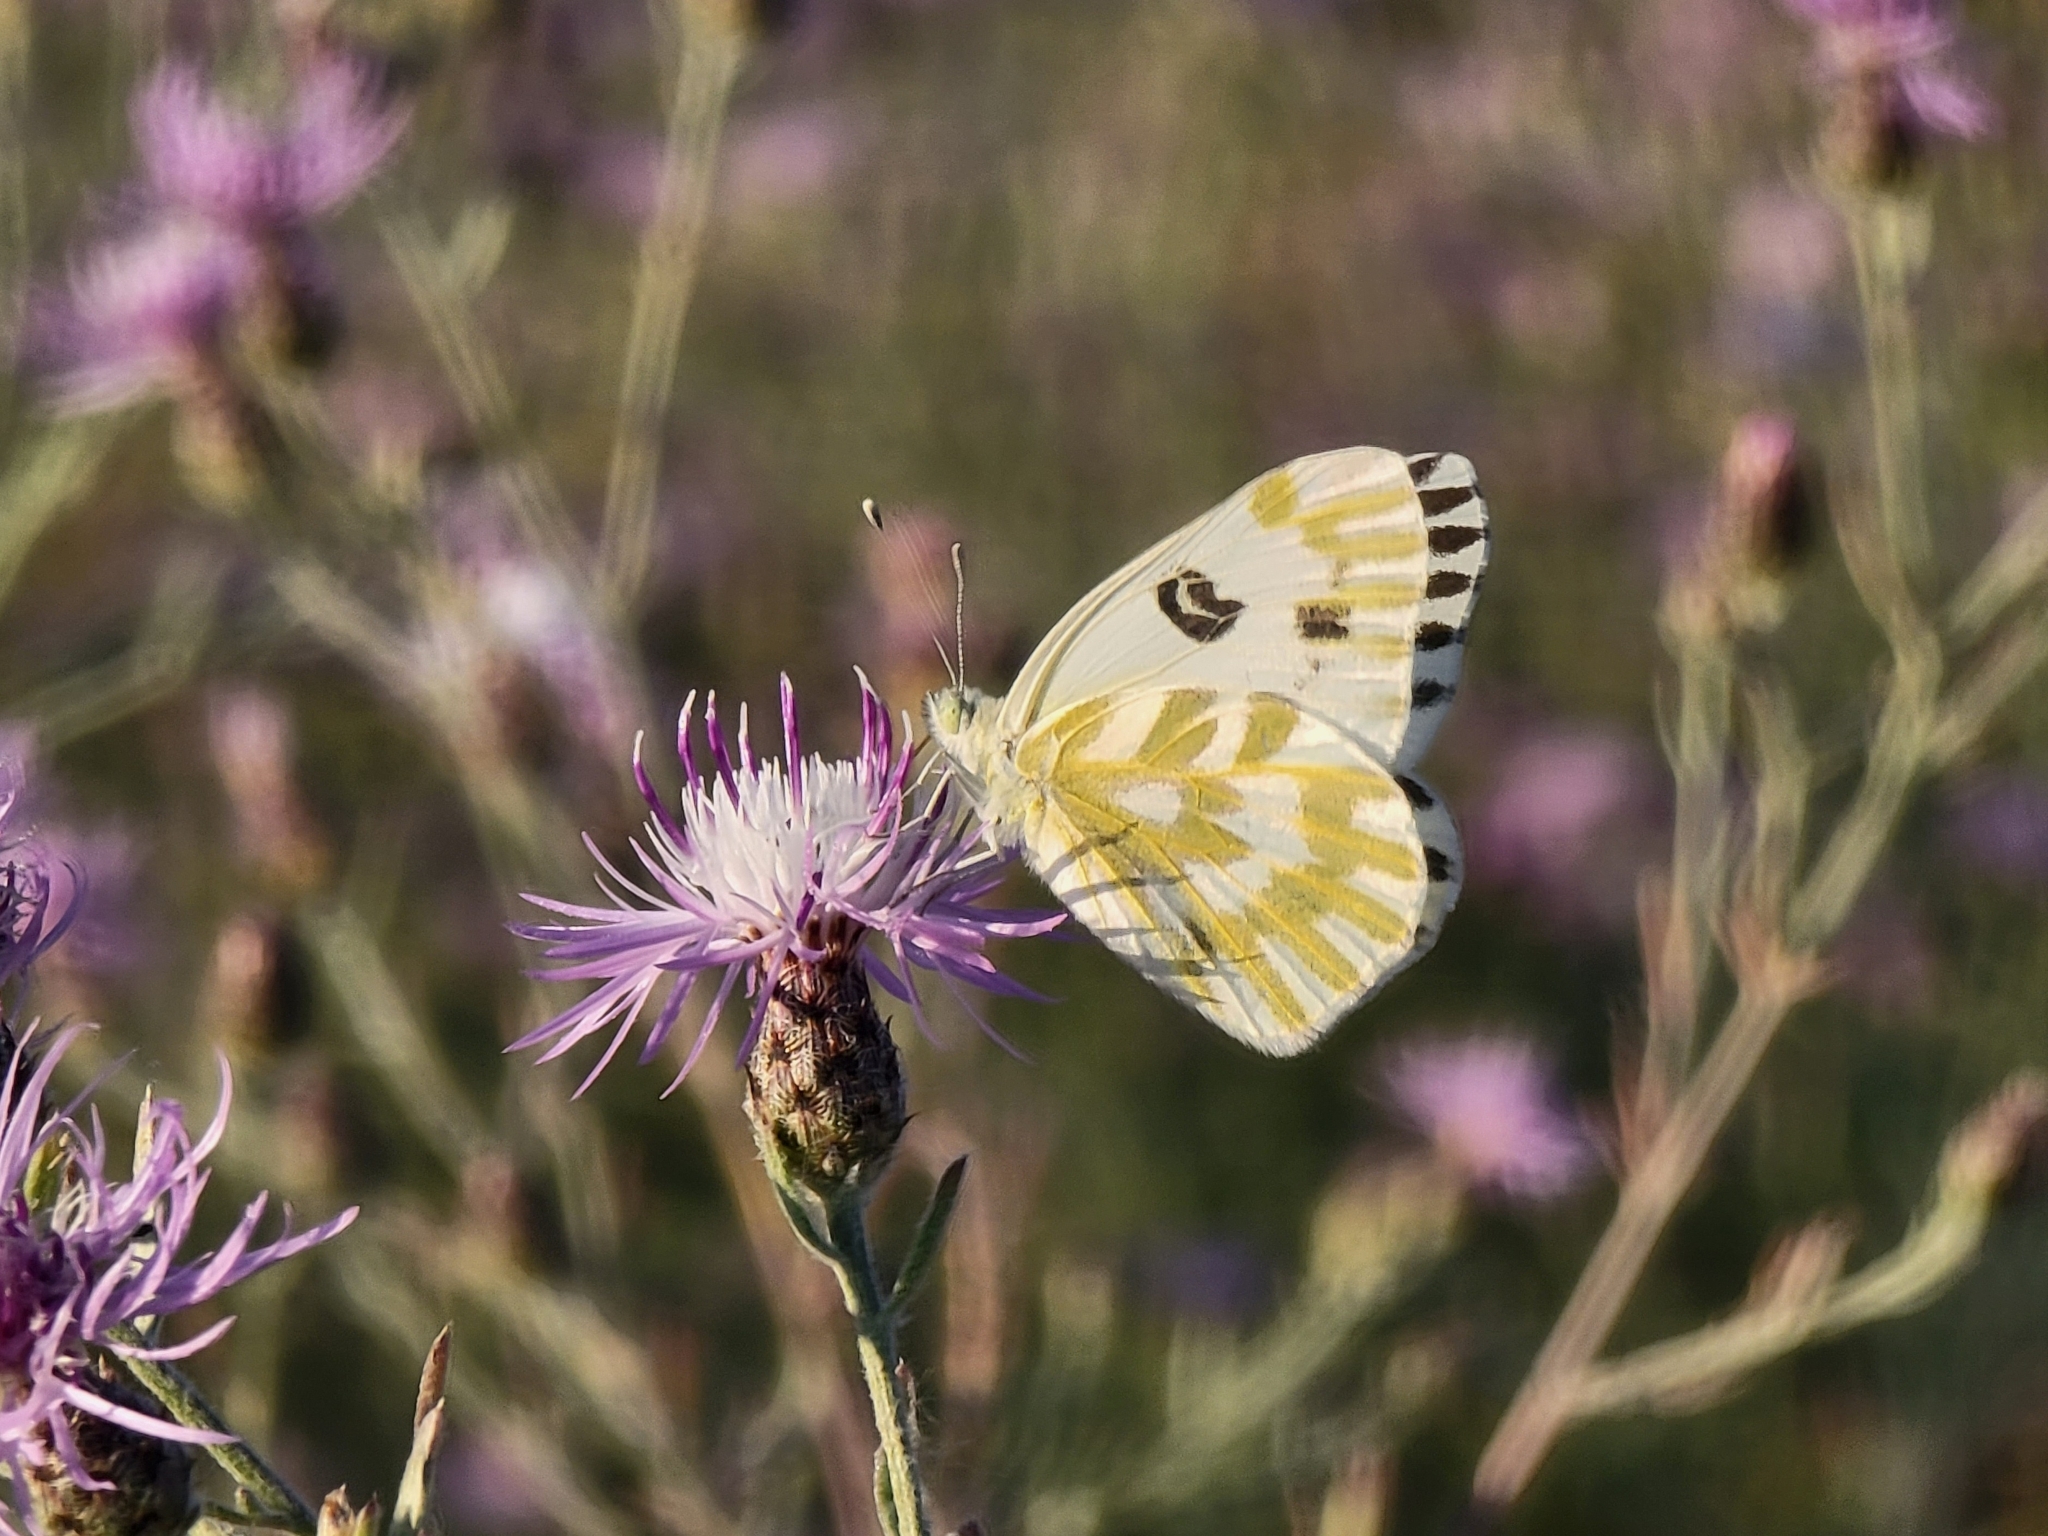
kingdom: Animalia
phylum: Arthropoda
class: Insecta
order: Lepidoptera
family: Pieridae
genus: Pontia
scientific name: Pontia beckerii
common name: Becker's white
